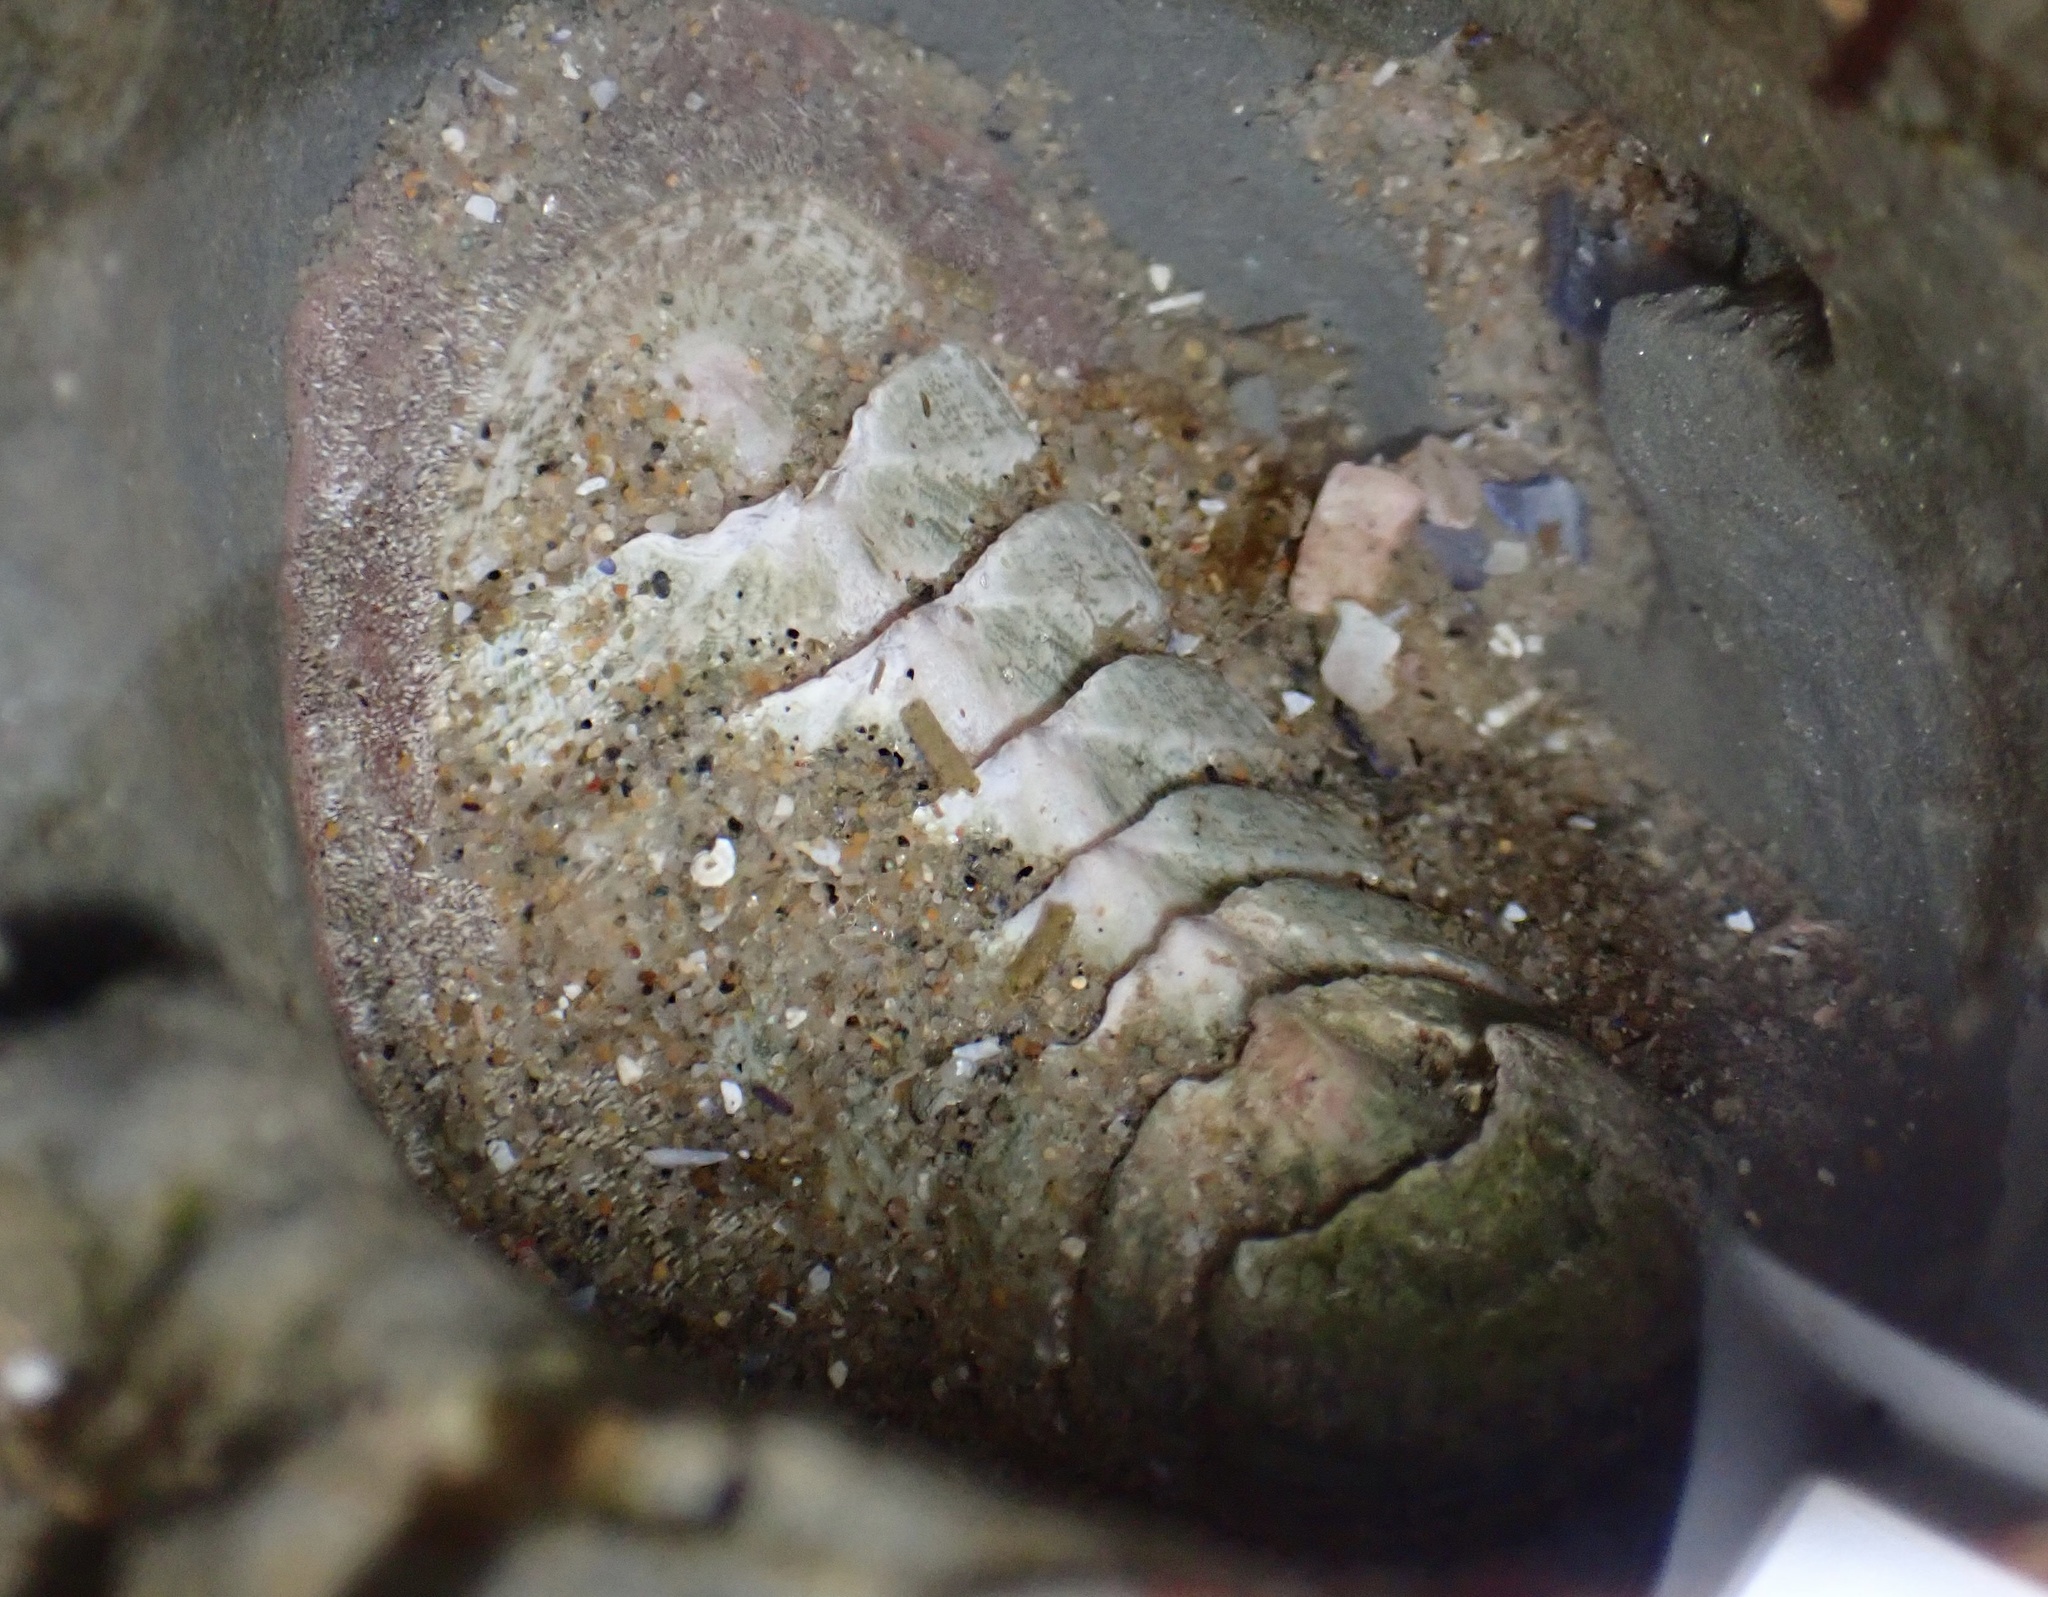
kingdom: Animalia
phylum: Mollusca
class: Polyplacophora
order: Chitonida
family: Ischnochitonidae
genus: Stenoplax
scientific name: Stenoplax conspicua
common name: Conspicuous chiton
